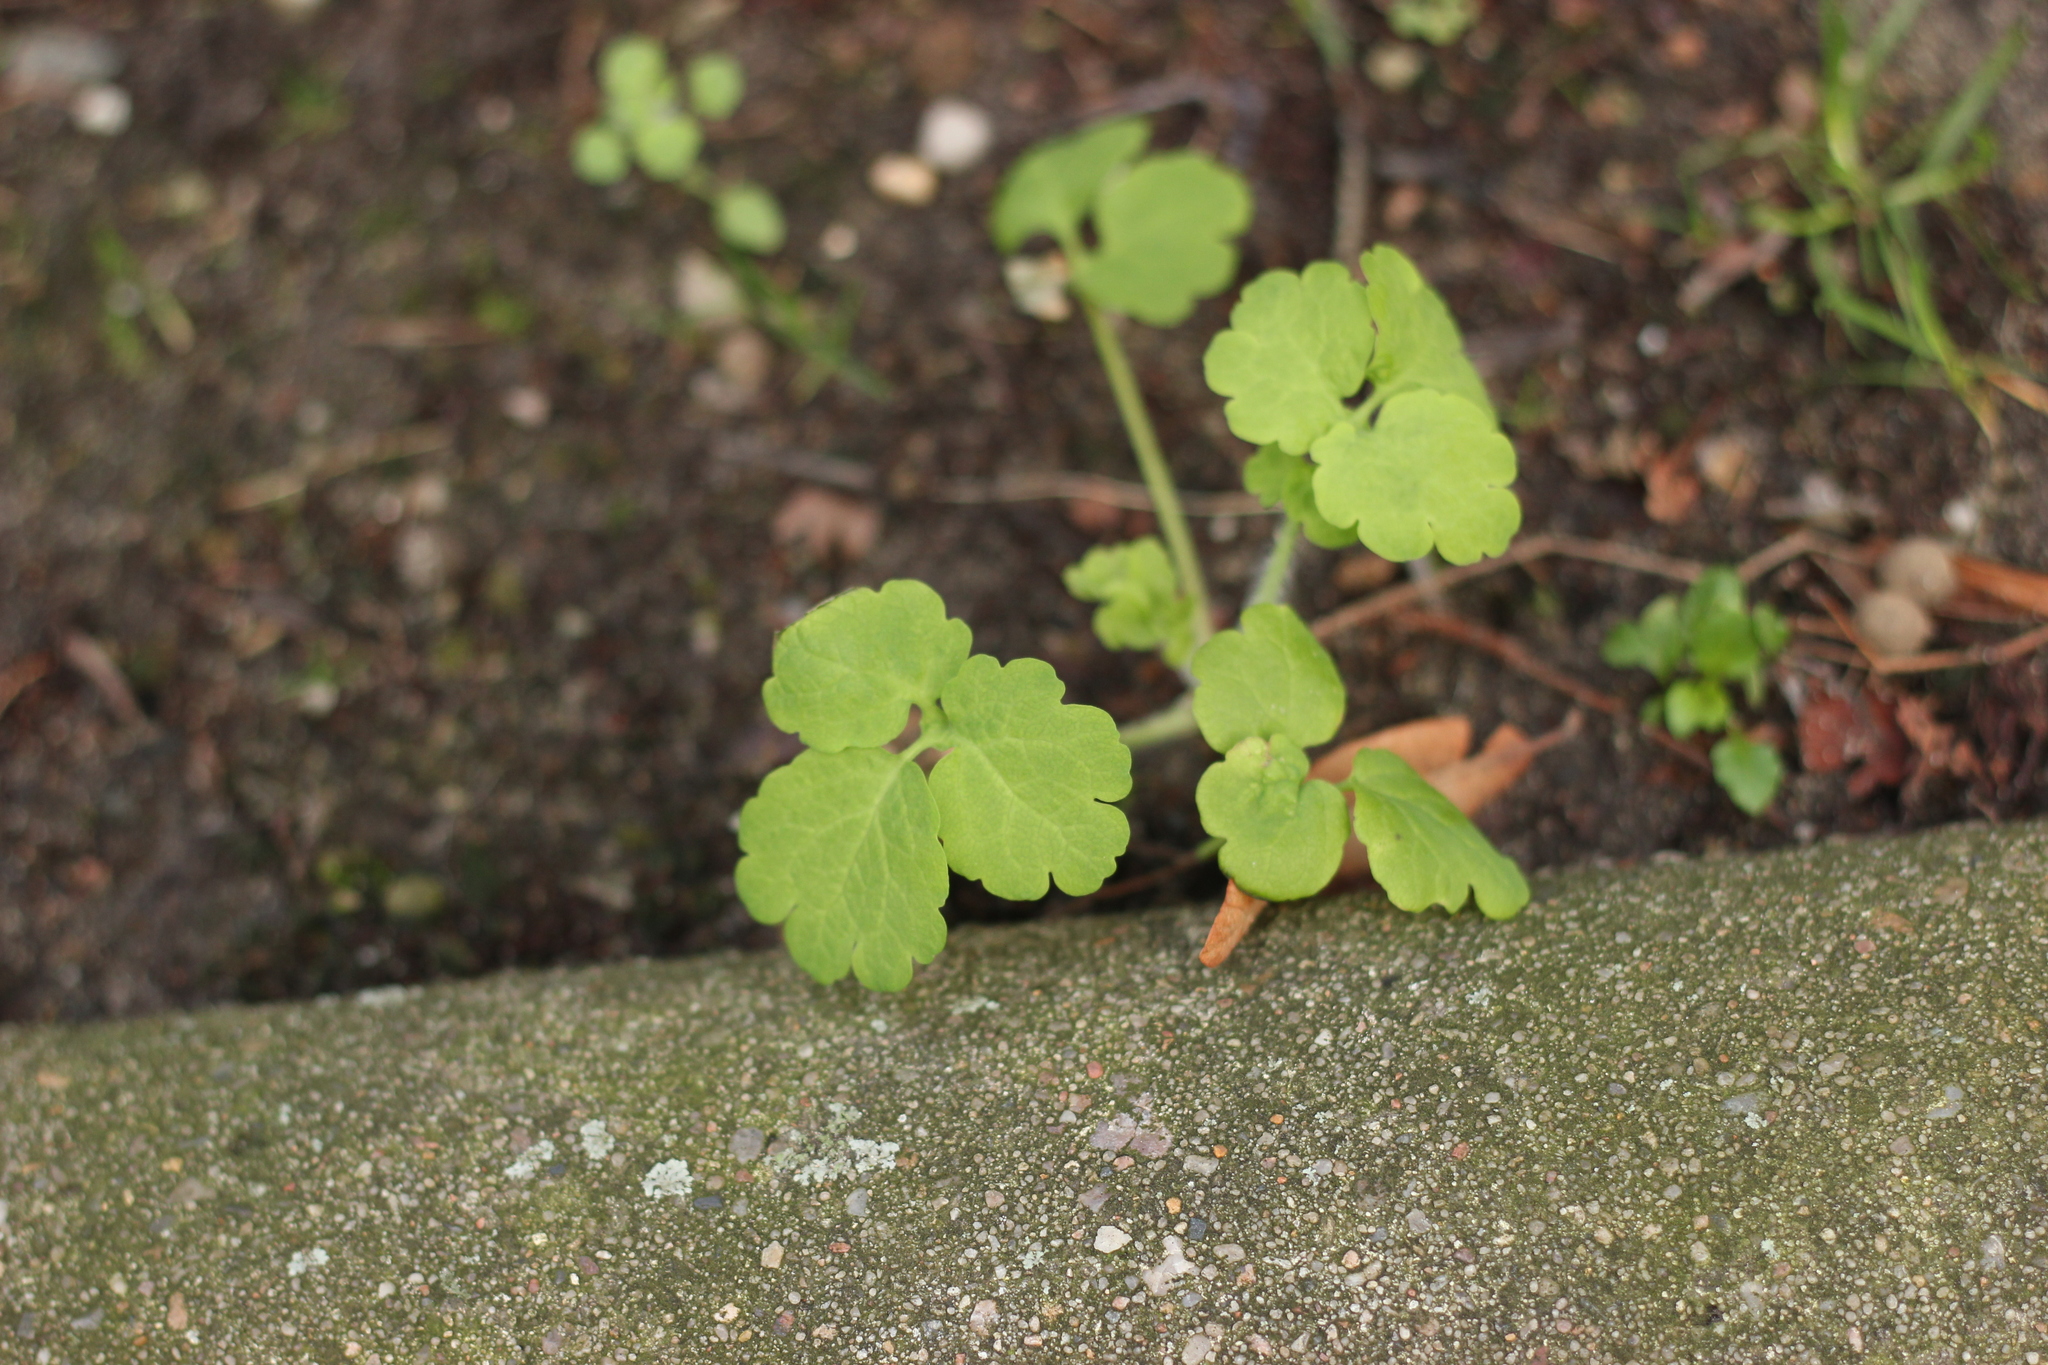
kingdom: Plantae
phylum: Tracheophyta
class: Magnoliopsida
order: Ranunculales
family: Papaveraceae
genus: Chelidonium
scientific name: Chelidonium majus
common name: Greater celandine
